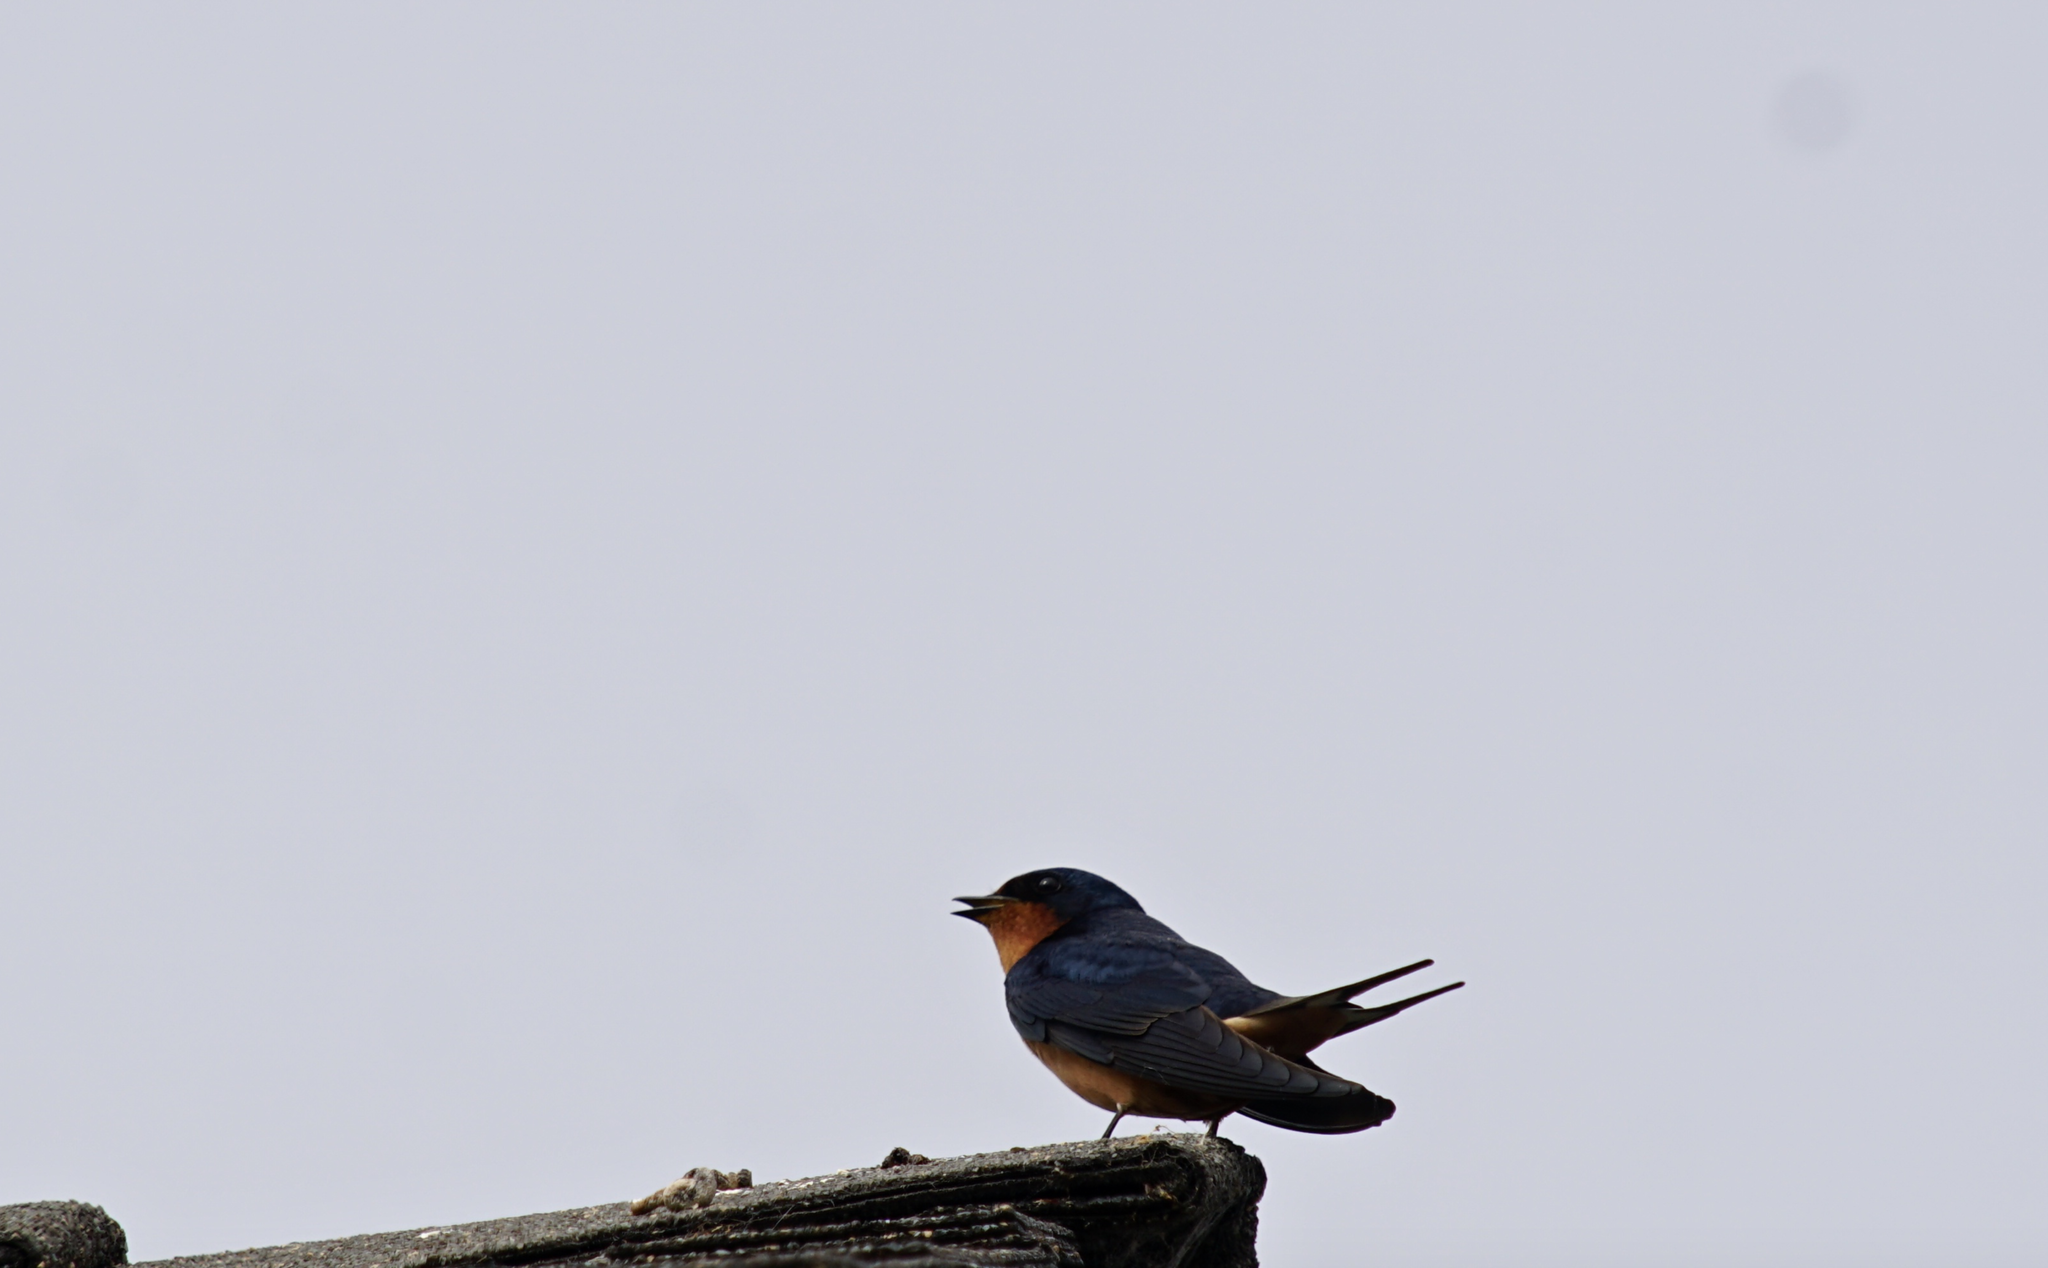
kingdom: Animalia
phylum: Chordata
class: Aves
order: Passeriformes
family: Hirundinidae
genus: Hirundo
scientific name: Hirundo rustica
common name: Barn swallow
